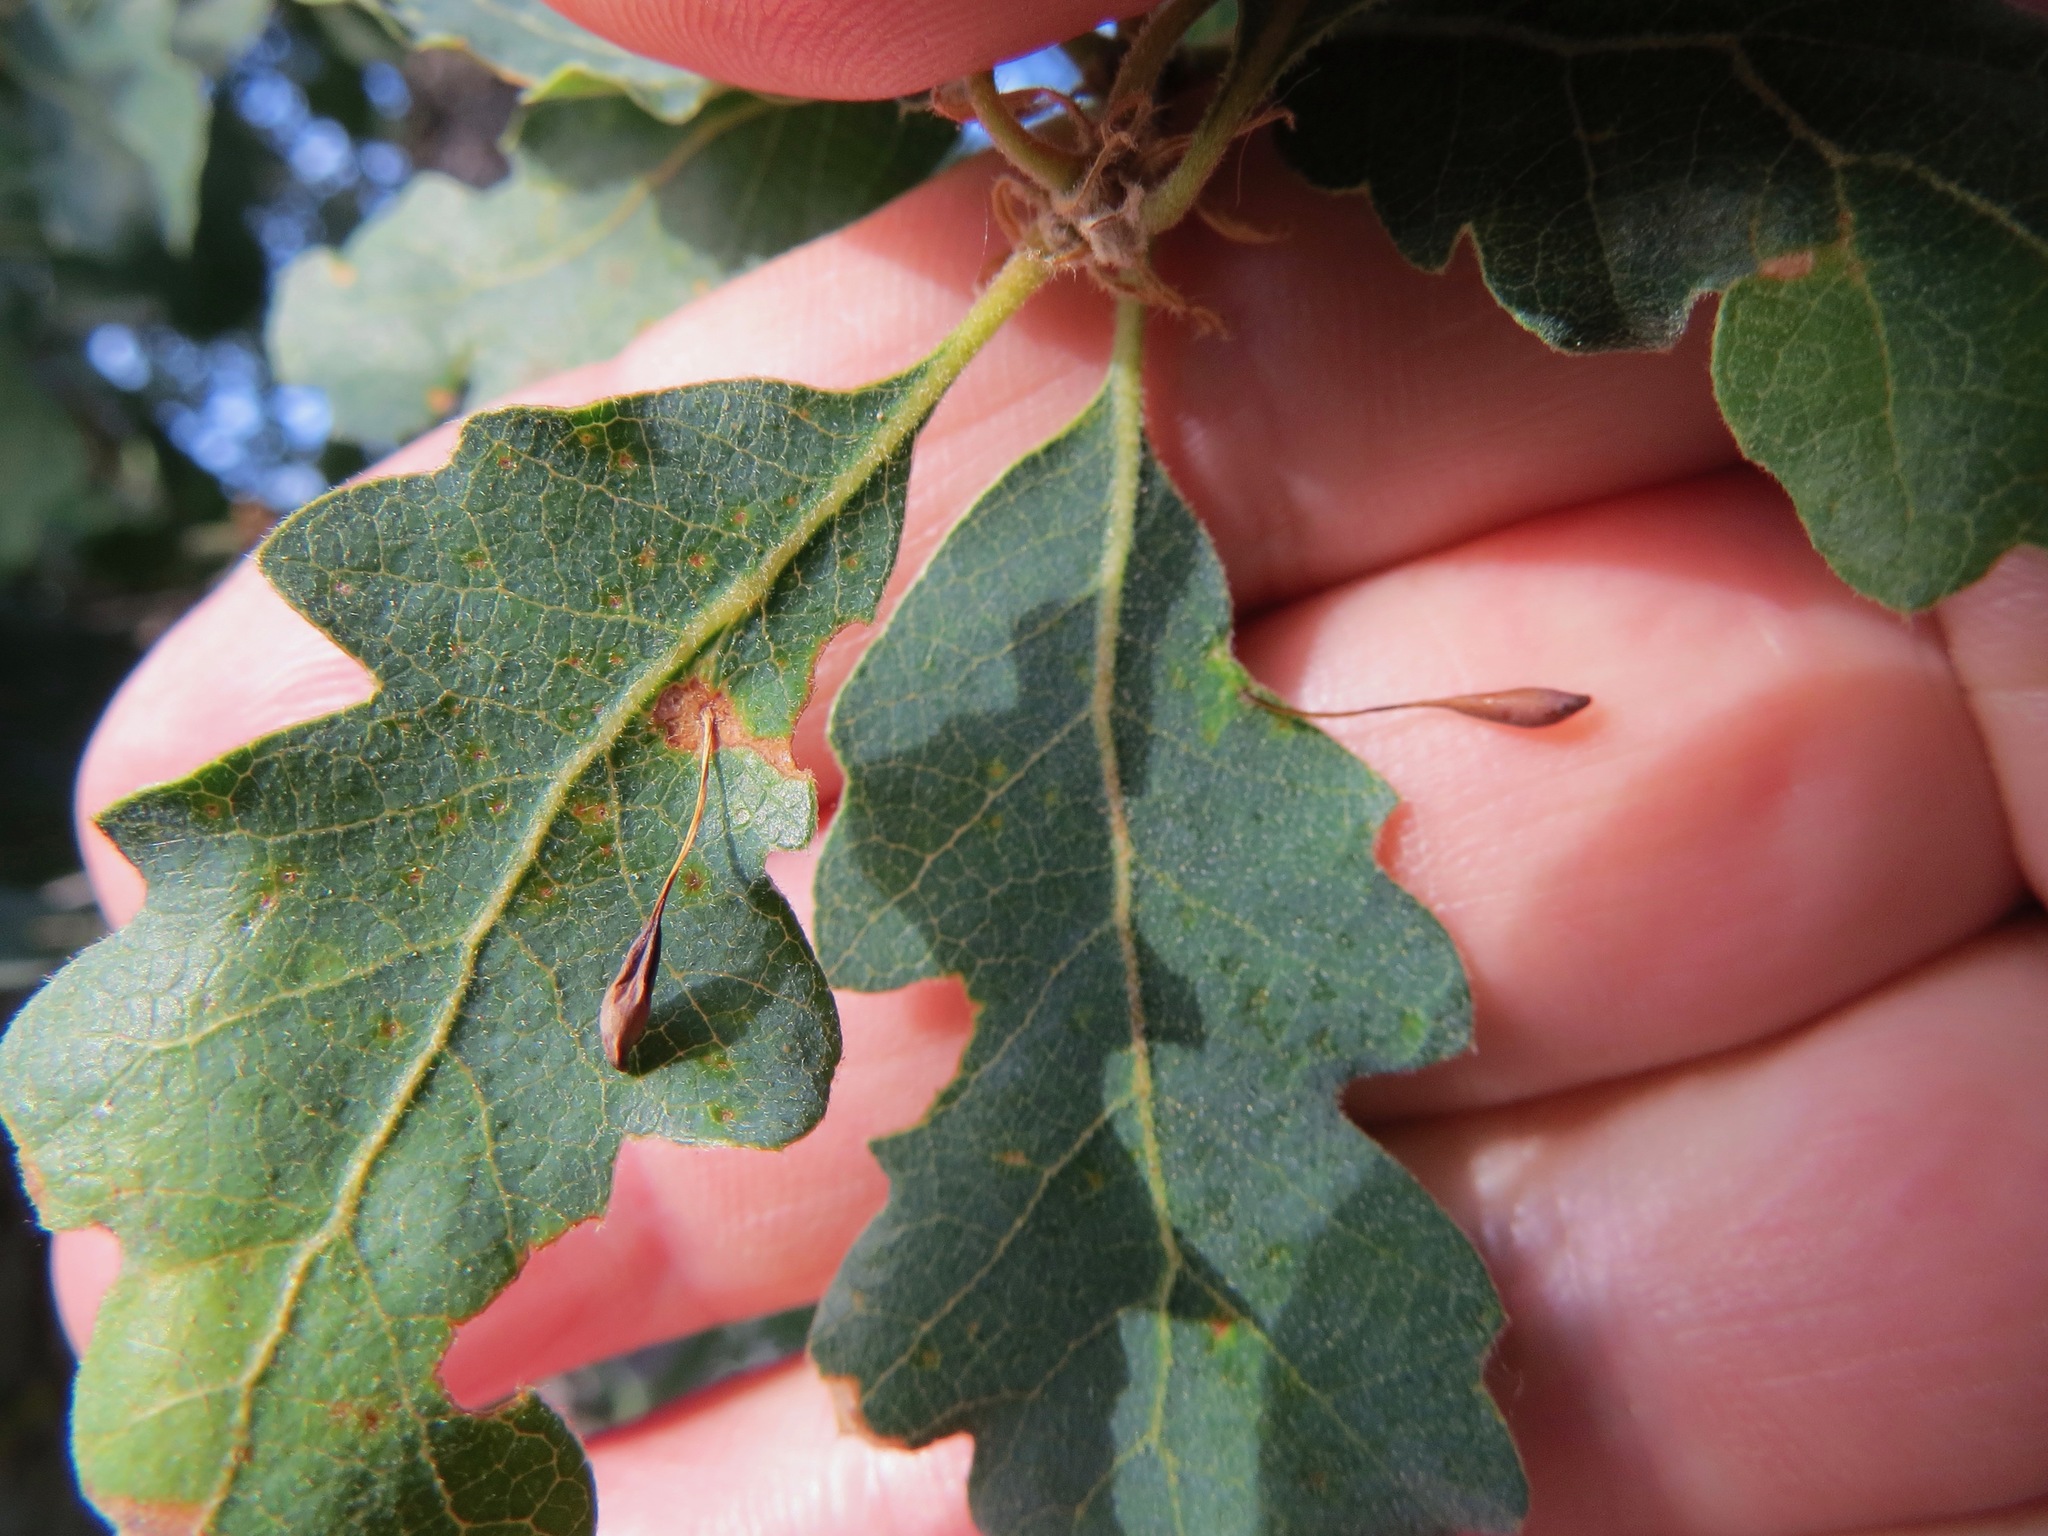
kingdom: Animalia
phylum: Arthropoda
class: Insecta
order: Hymenoptera
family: Cynipidae
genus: Andricus
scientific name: Andricus
